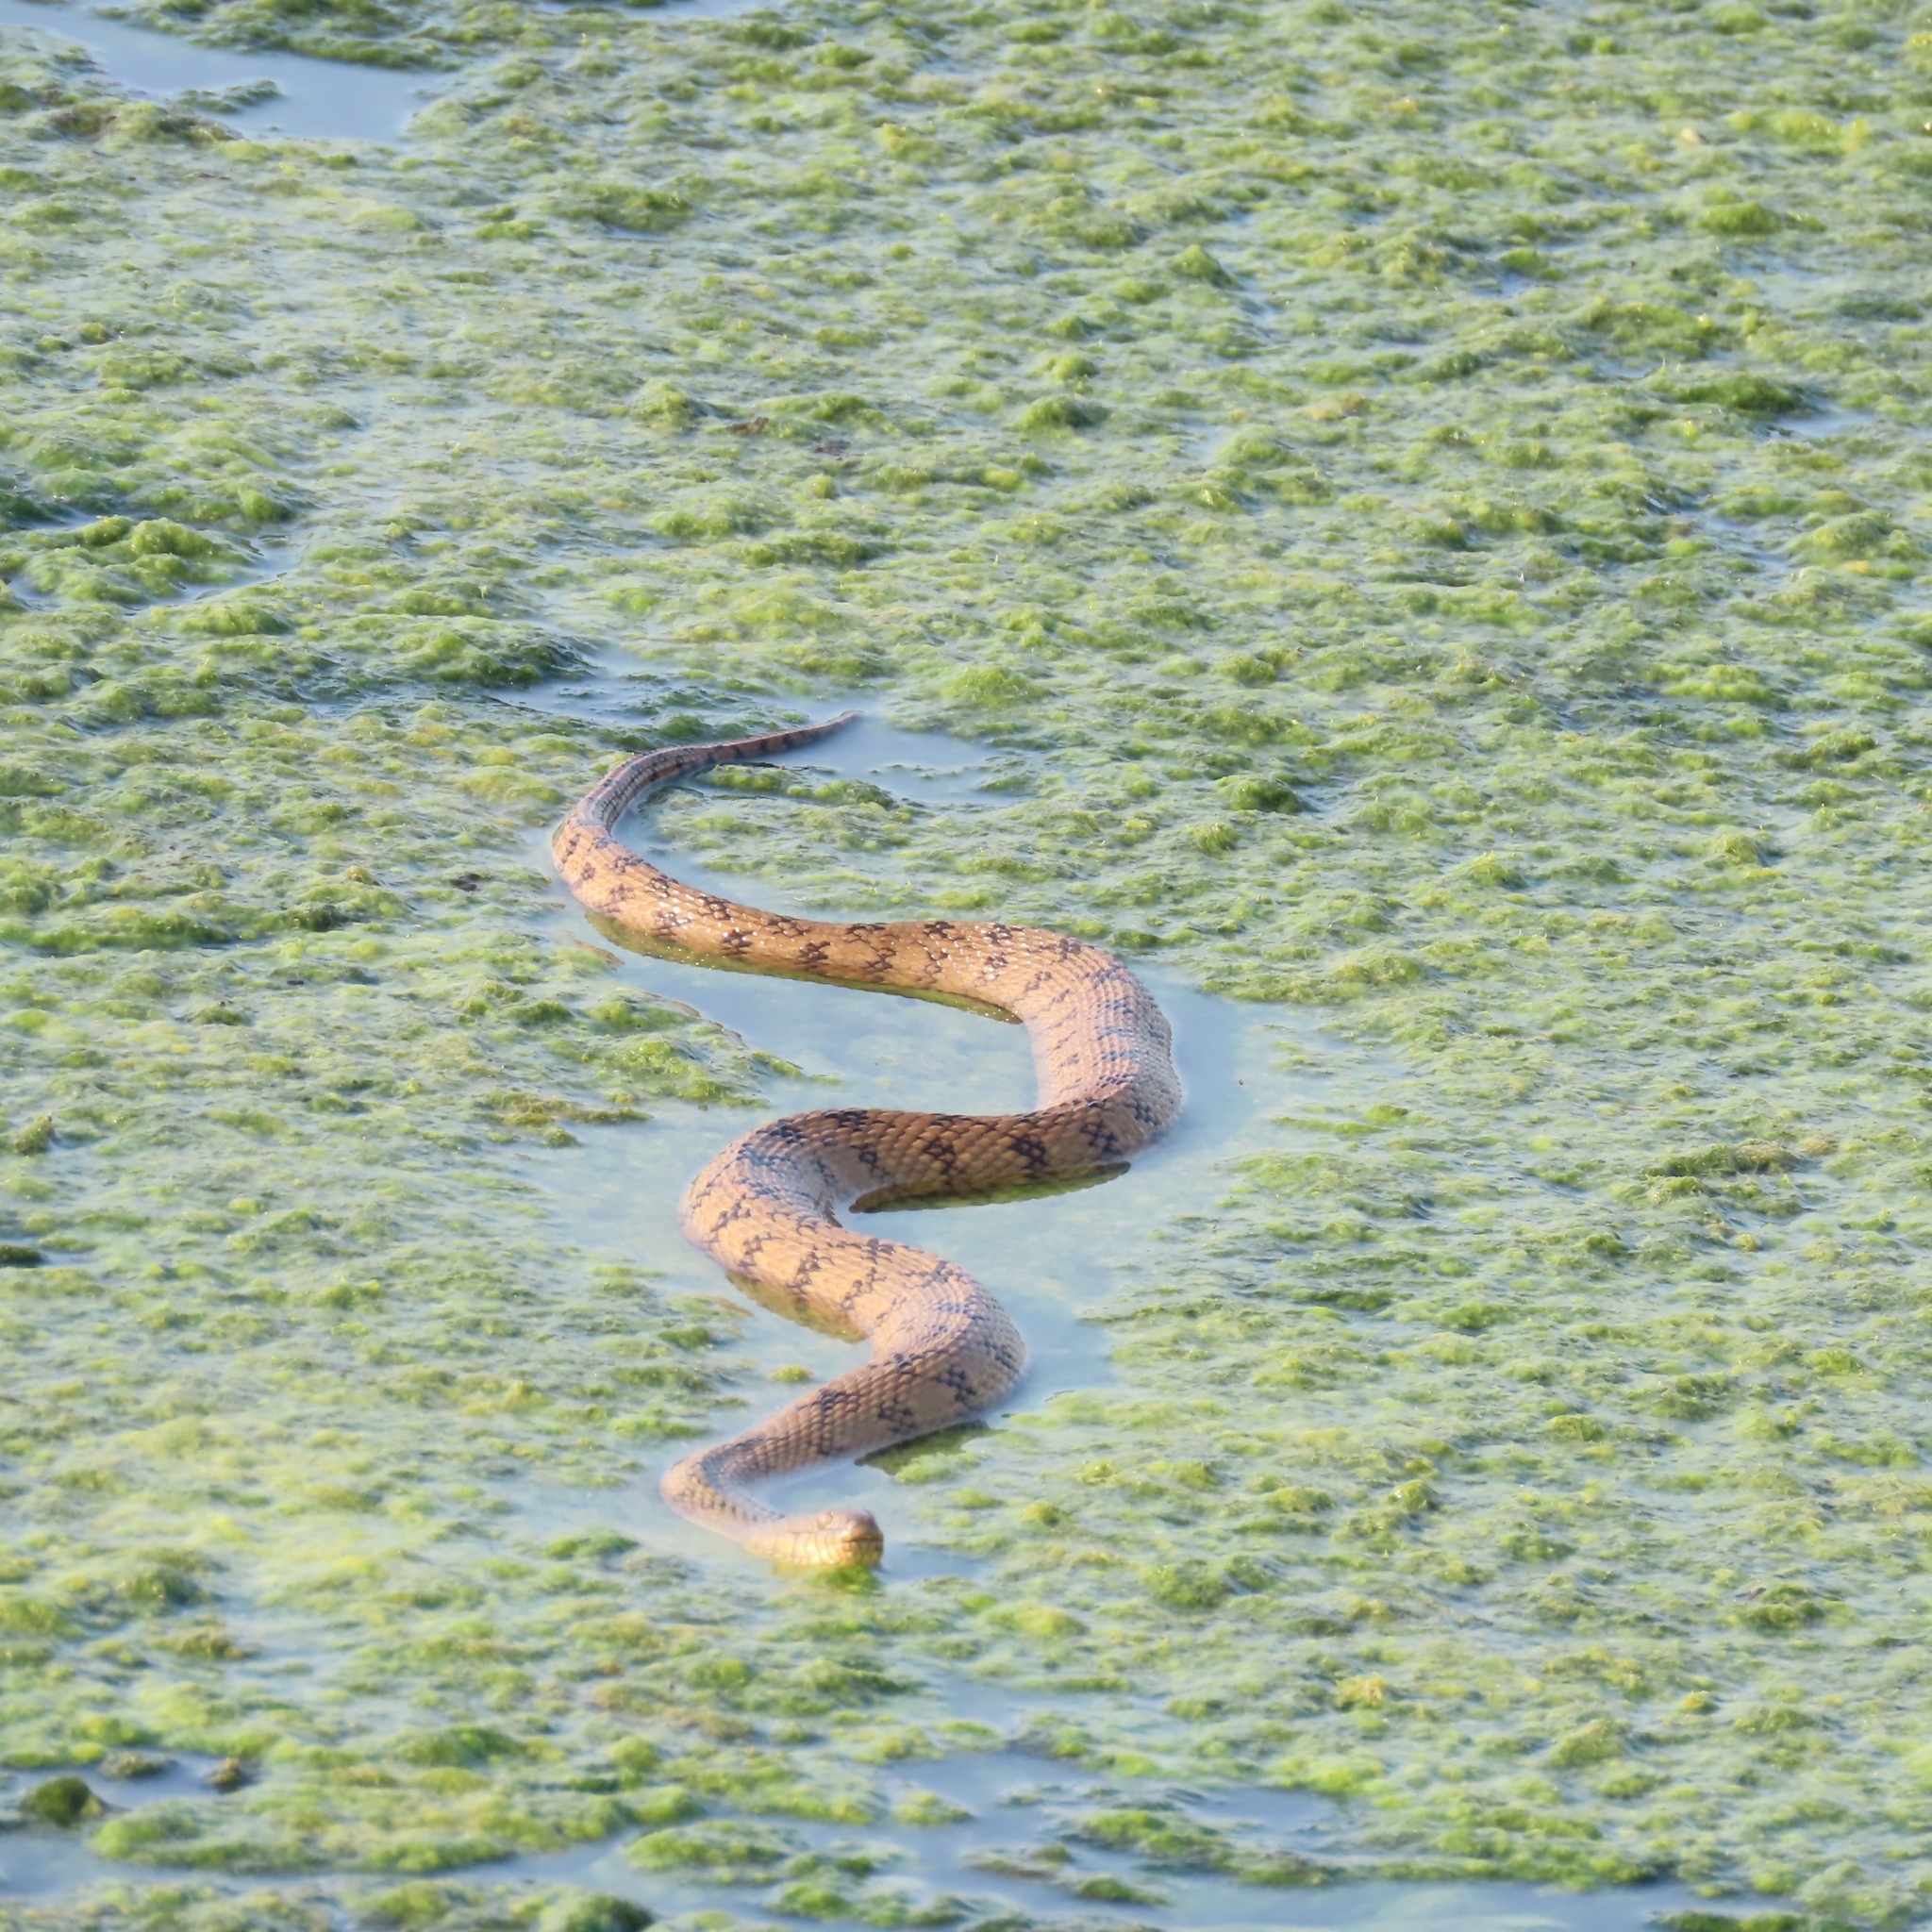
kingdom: Animalia
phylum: Chordata
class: Squamata
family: Colubridae
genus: Nerodia
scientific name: Nerodia rhombifer
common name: Diamondback water snake
